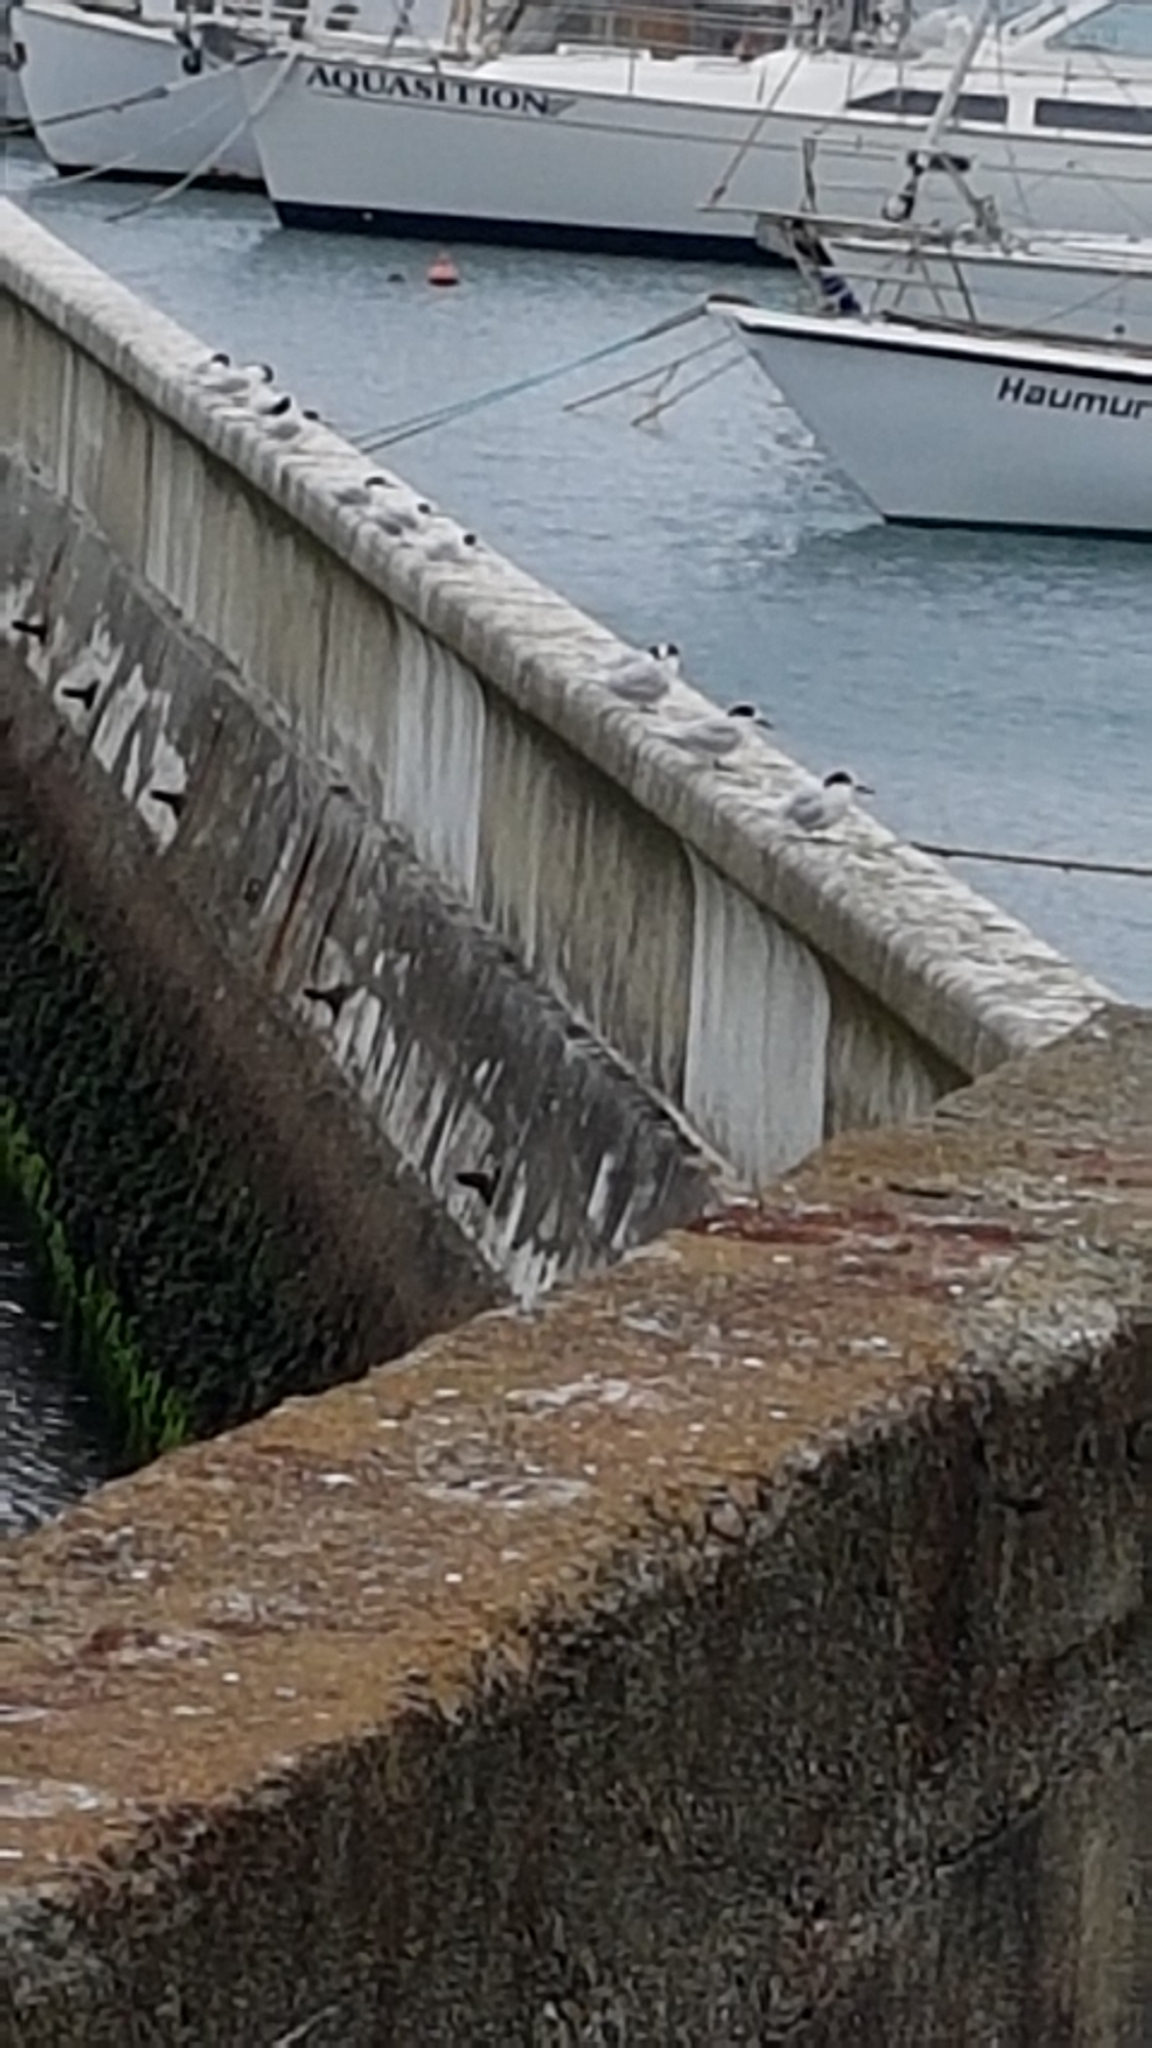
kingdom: Animalia
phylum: Chordata
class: Aves
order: Charadriiformes
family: Laridae
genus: Sterna
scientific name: Sterna striata
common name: White-fronted tern
